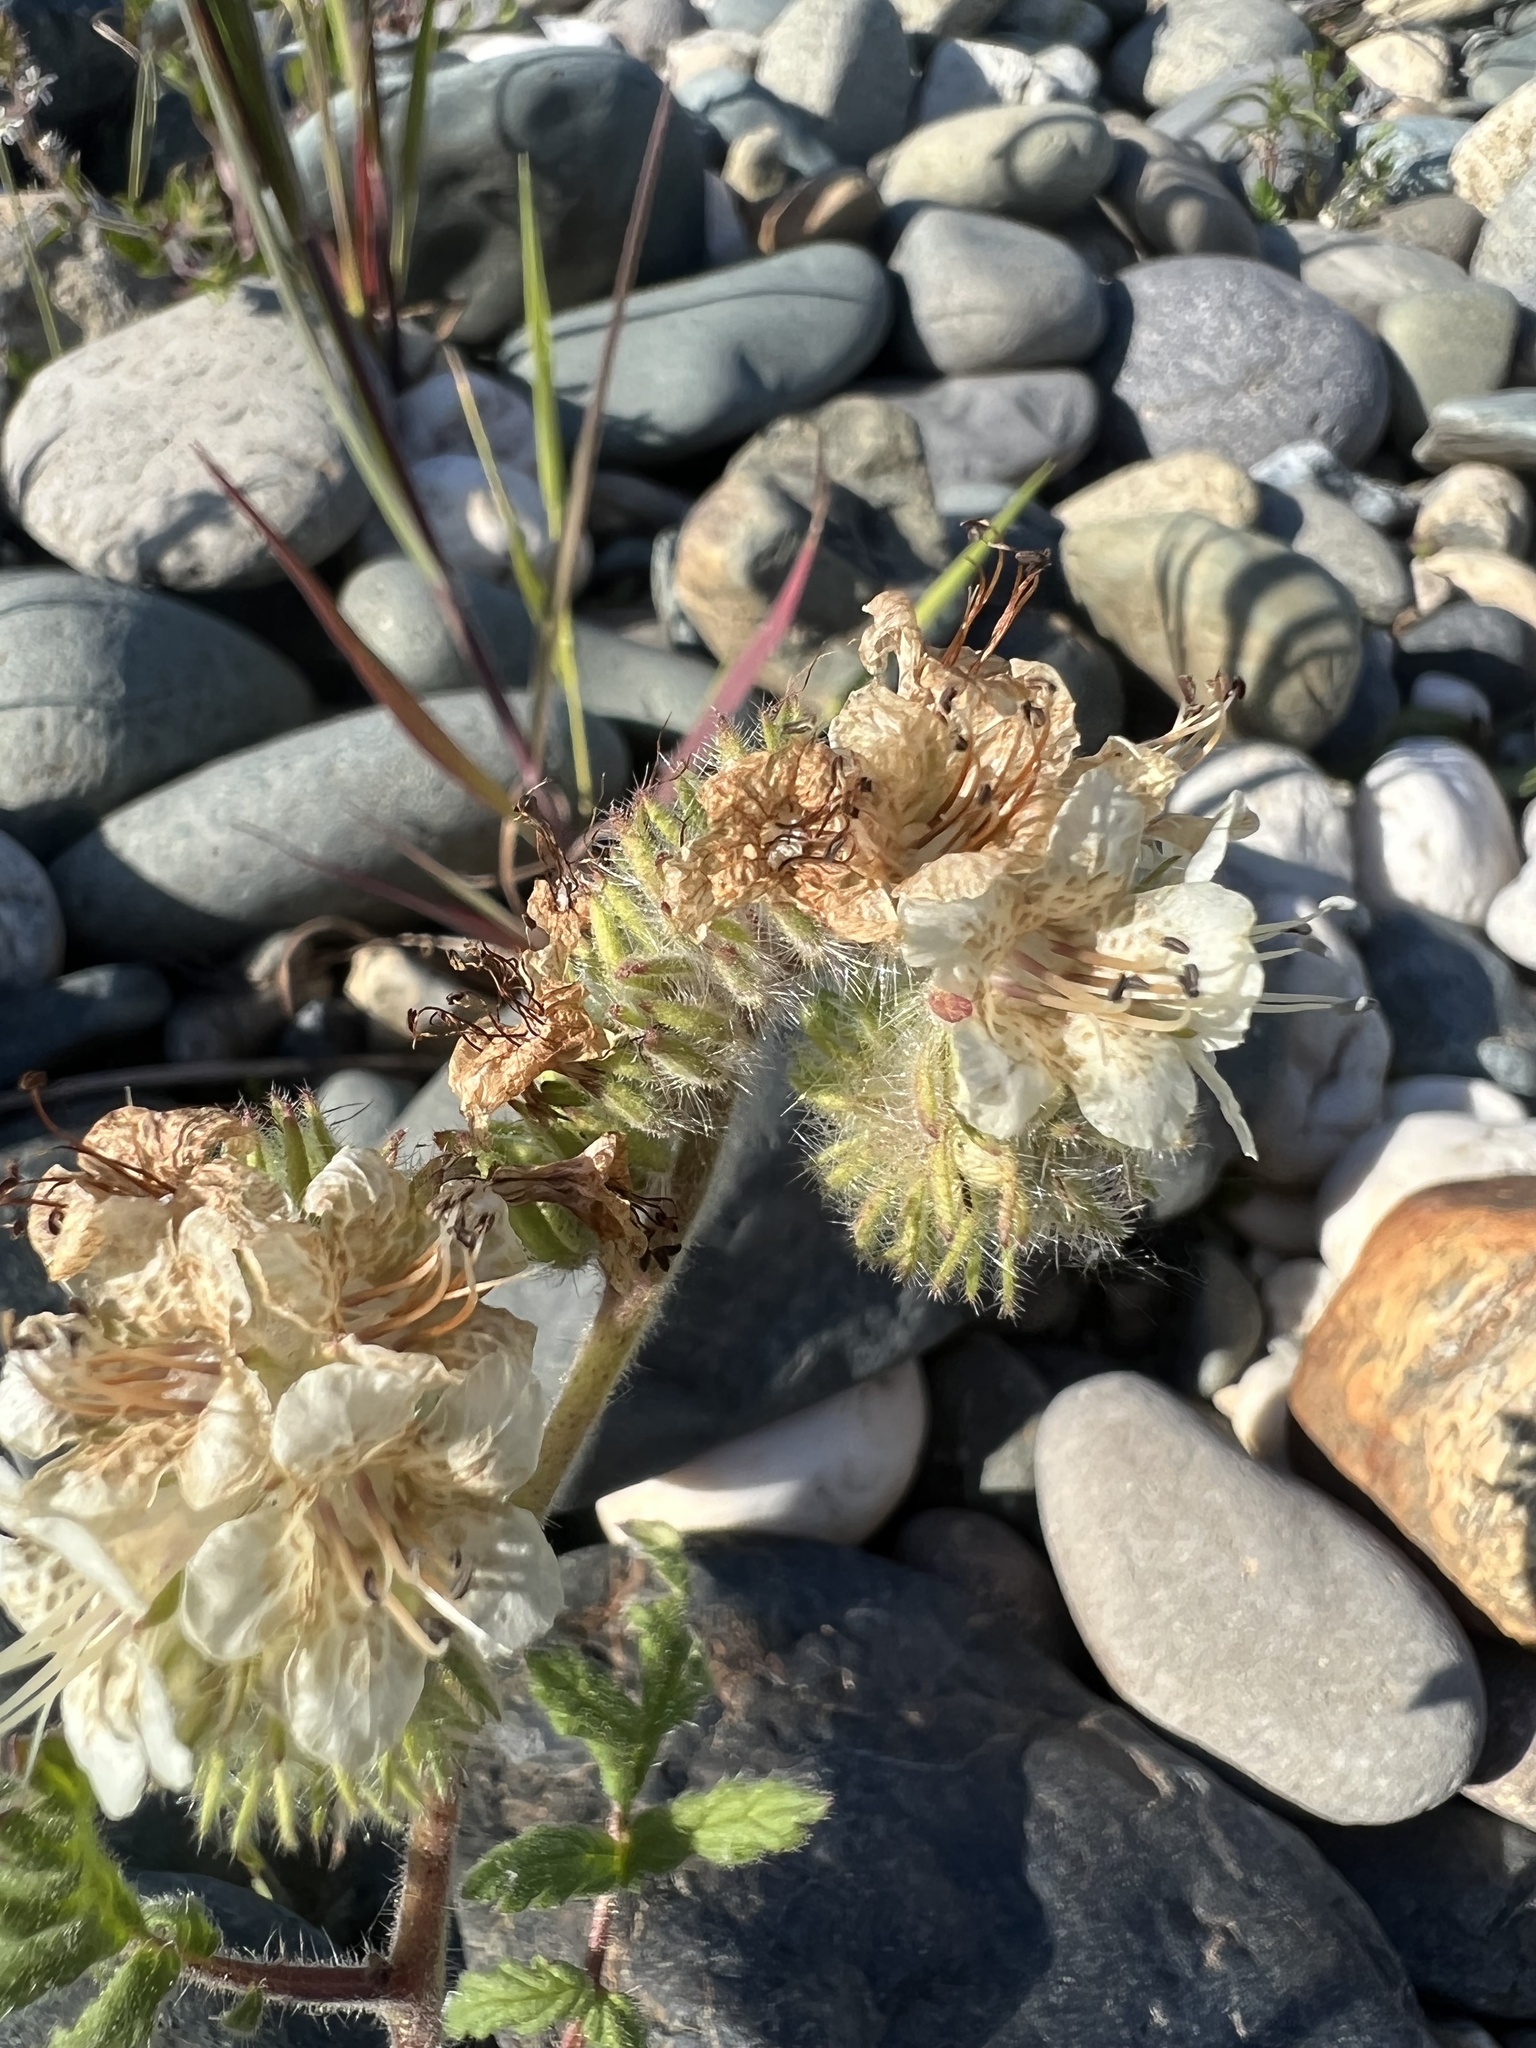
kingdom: Plantae
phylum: Tracheophyta
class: Magnoliopsida
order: Boraginales
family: Hydrophyllaceae
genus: Phacelia
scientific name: Phacelia cicutaria
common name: Caterpillar phacelia
